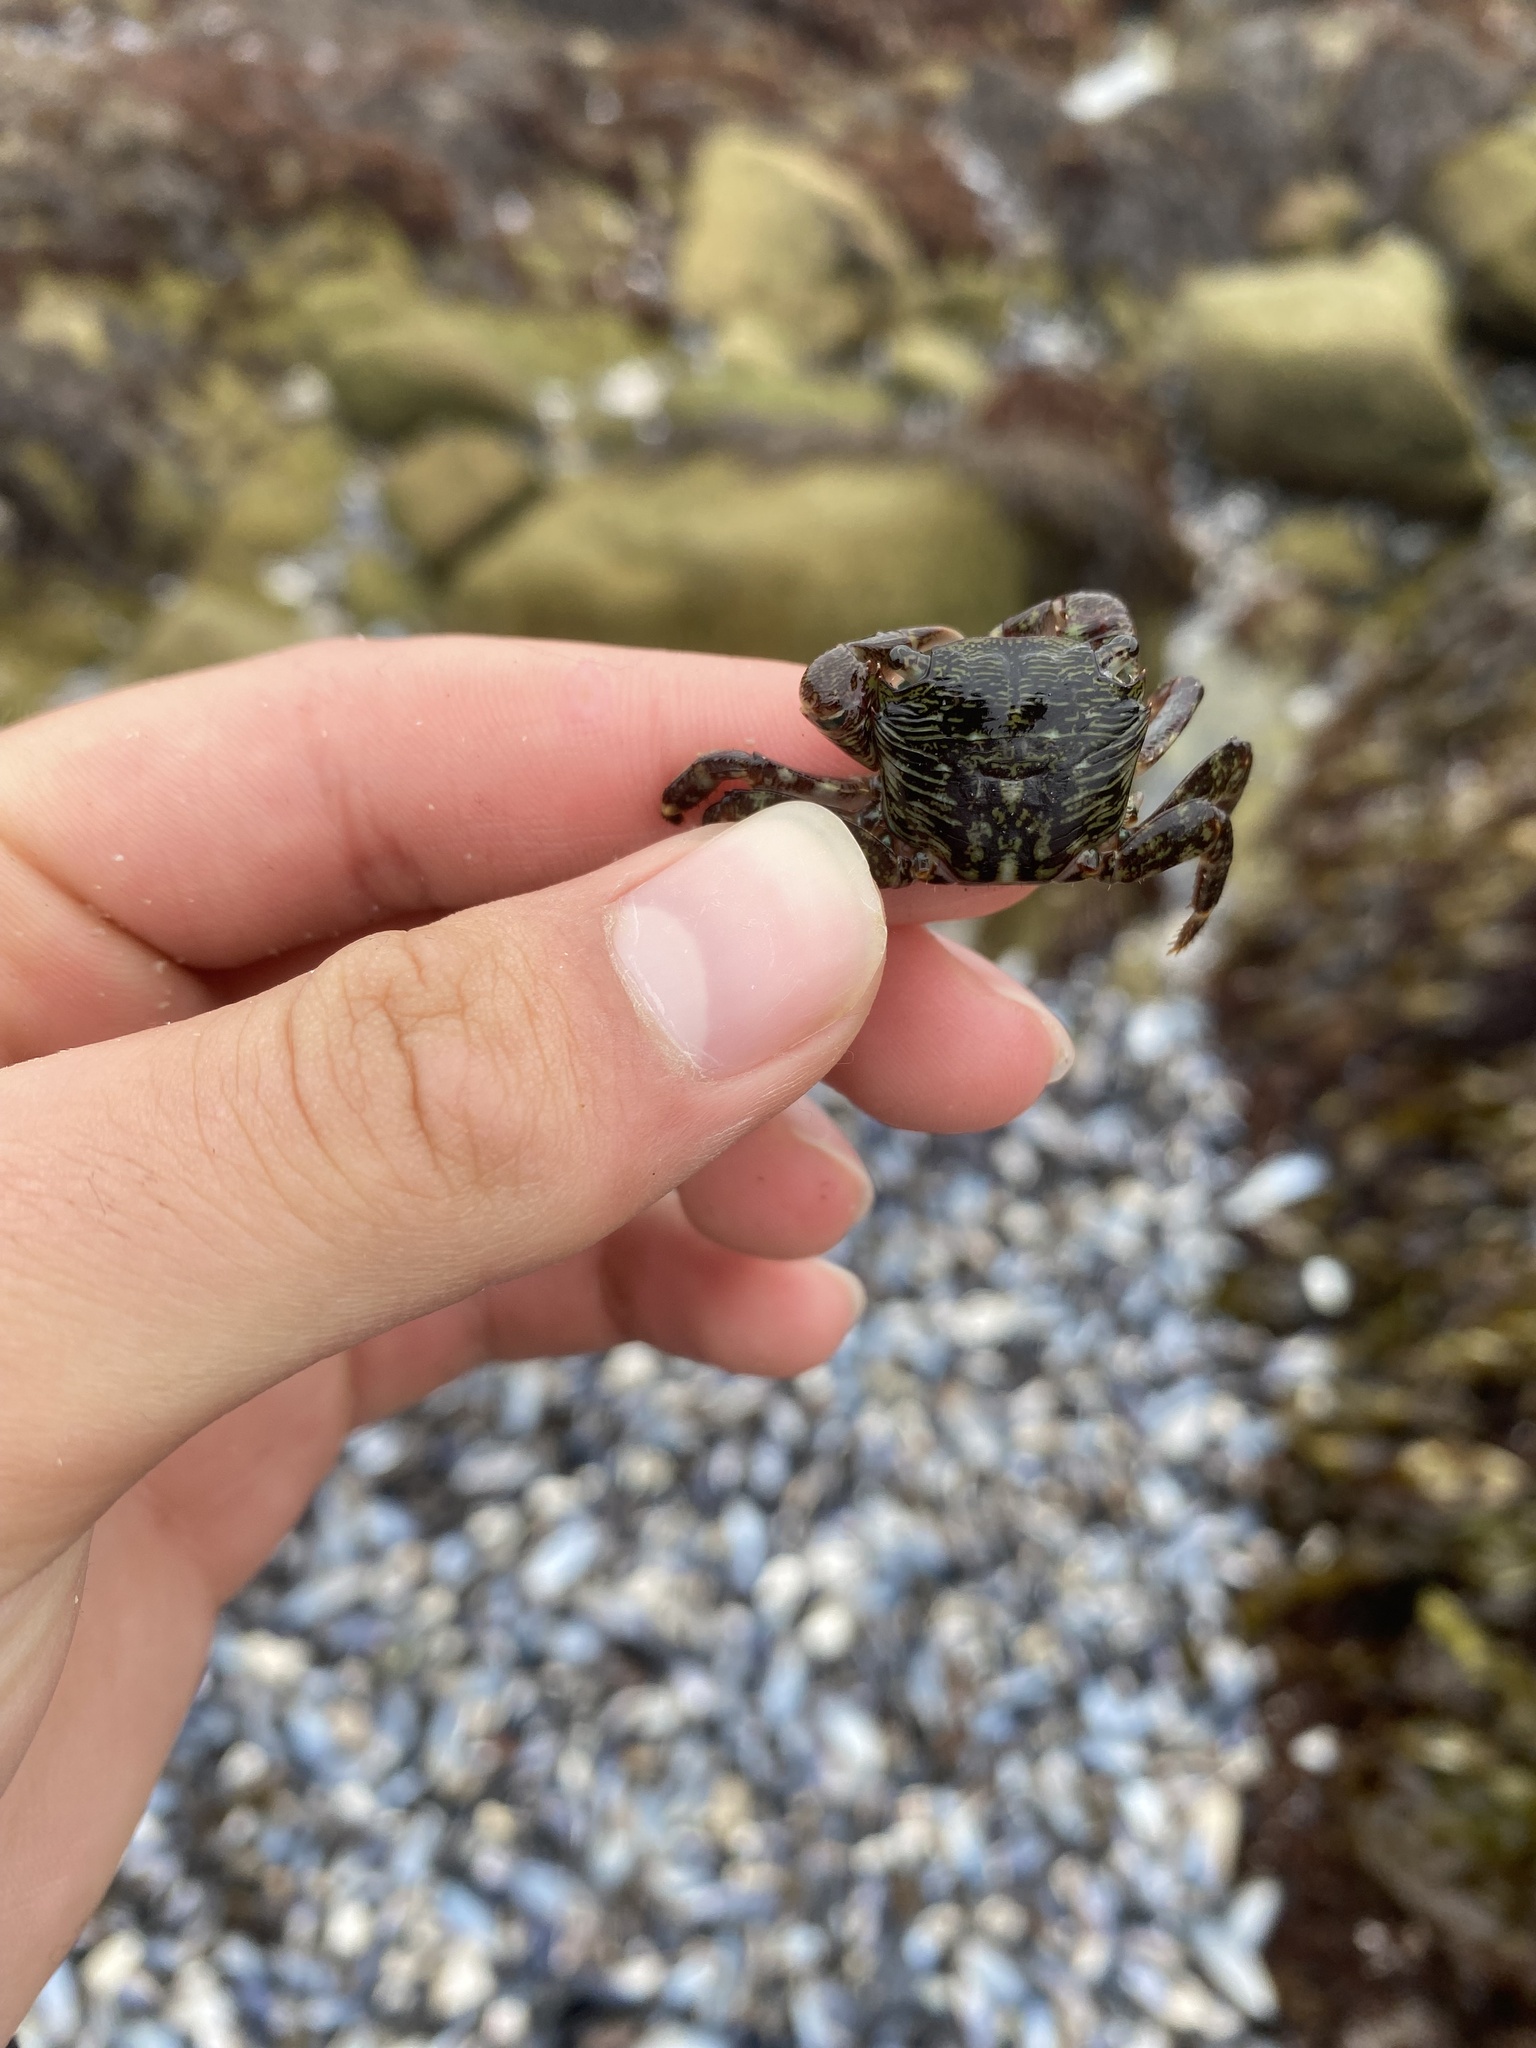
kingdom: Animalia
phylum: Arthropoda
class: Malacostraca
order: Decapoda
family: Grapsidae
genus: Pachygrapsus
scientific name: Pachygrapsus crassipes
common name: Striped shore crab
